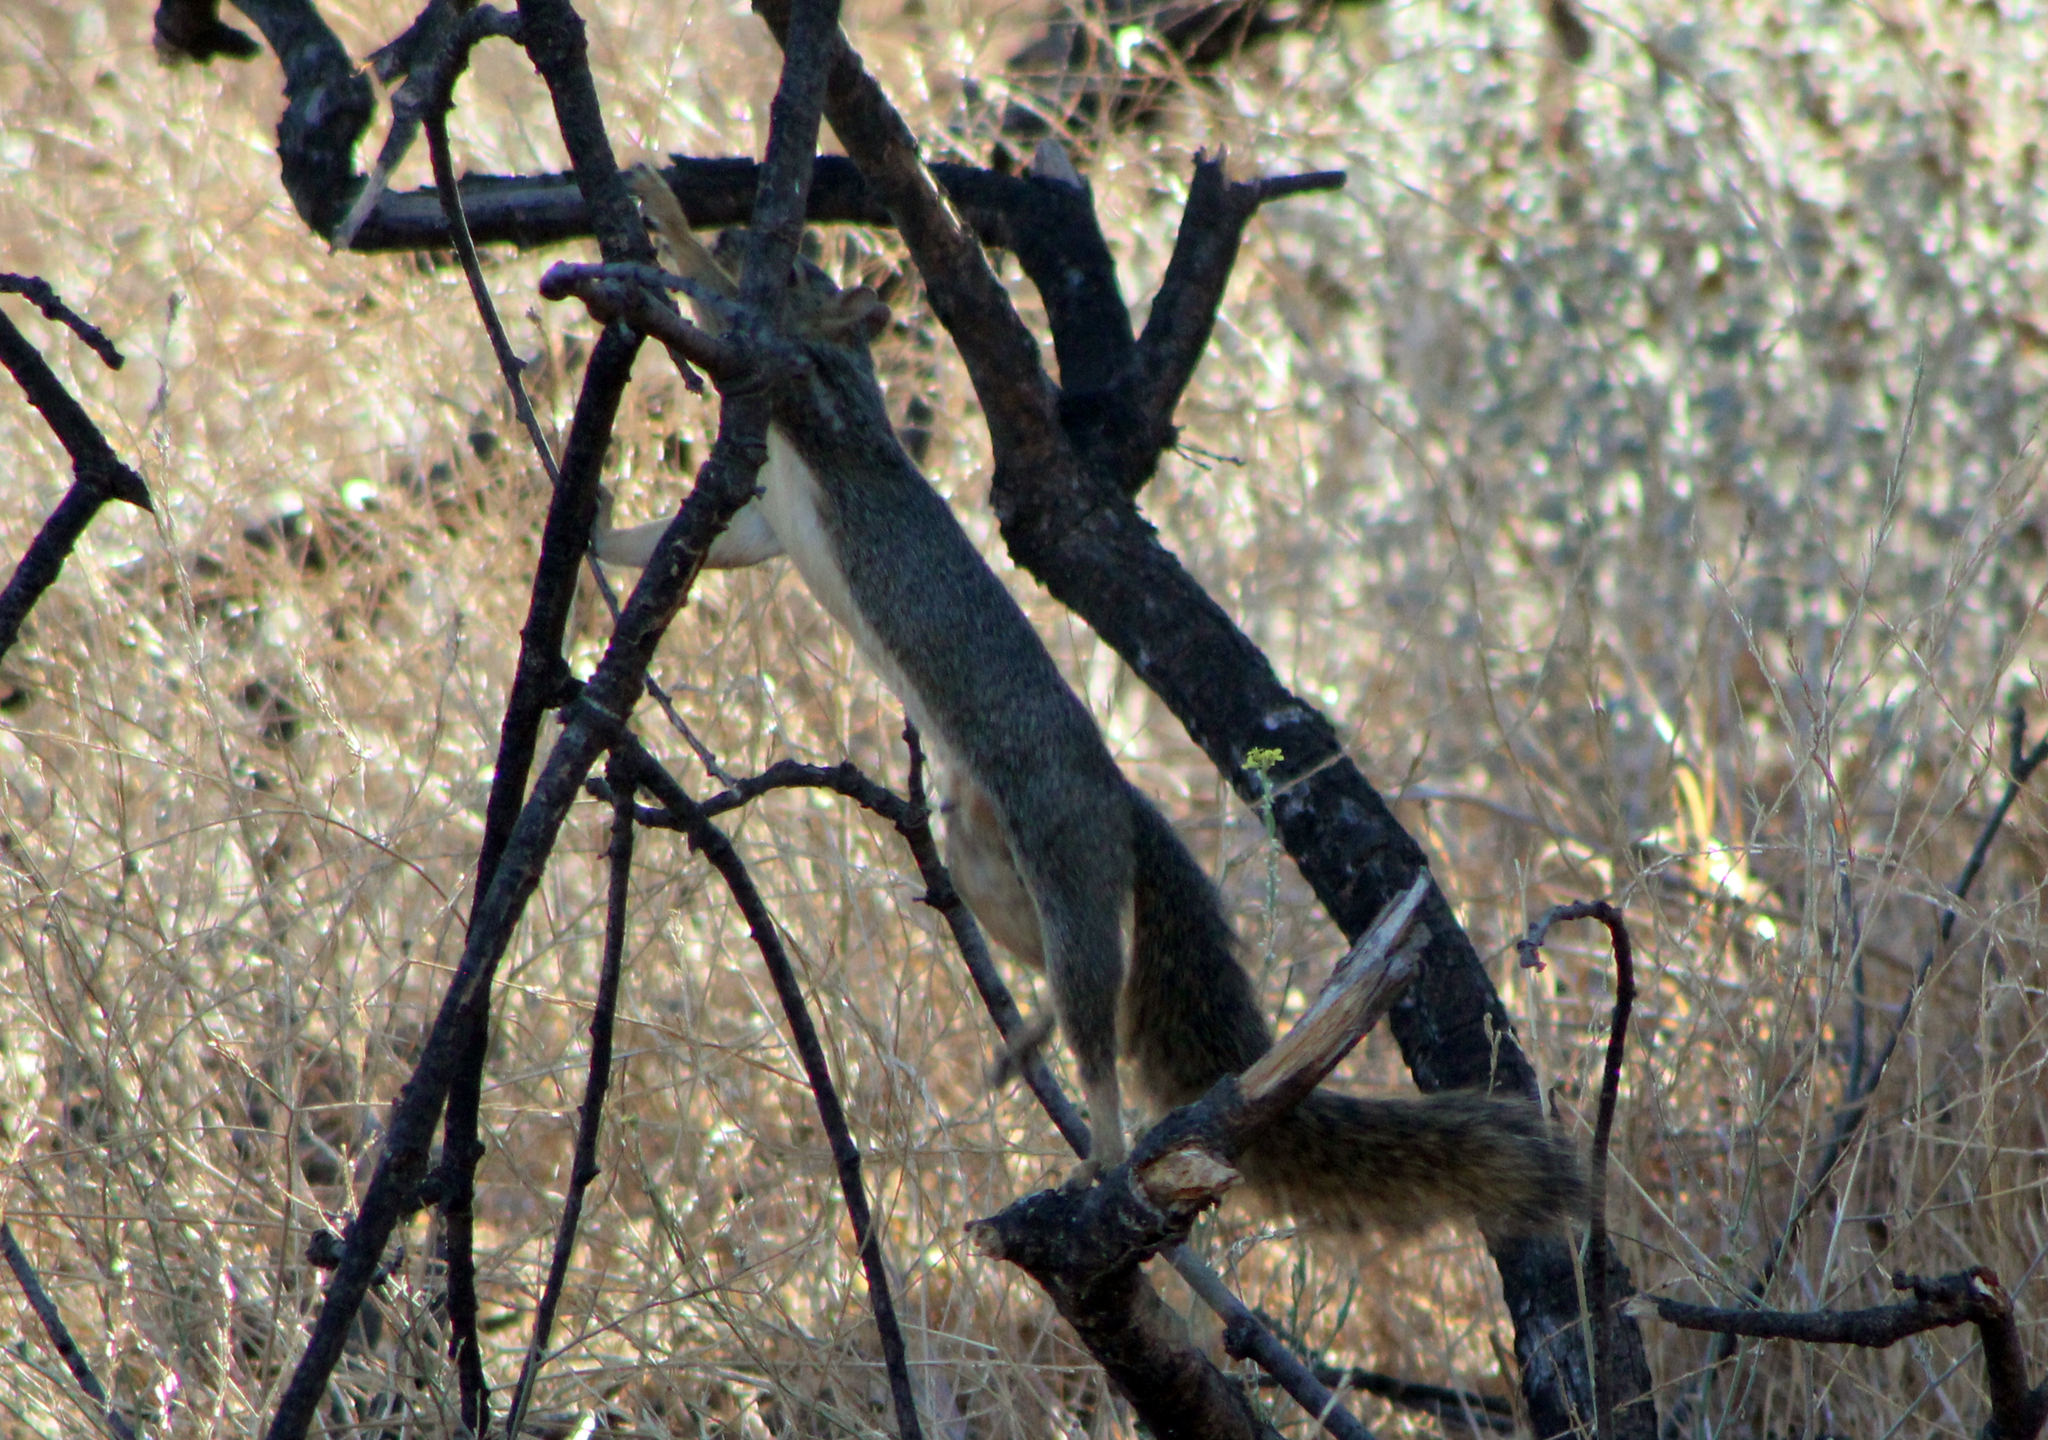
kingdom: Animalia
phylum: Chordata
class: Mammalia
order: Rodentia
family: Sciuridae
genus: Sciurus
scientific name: Sciurus niger
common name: Fox squirrel
